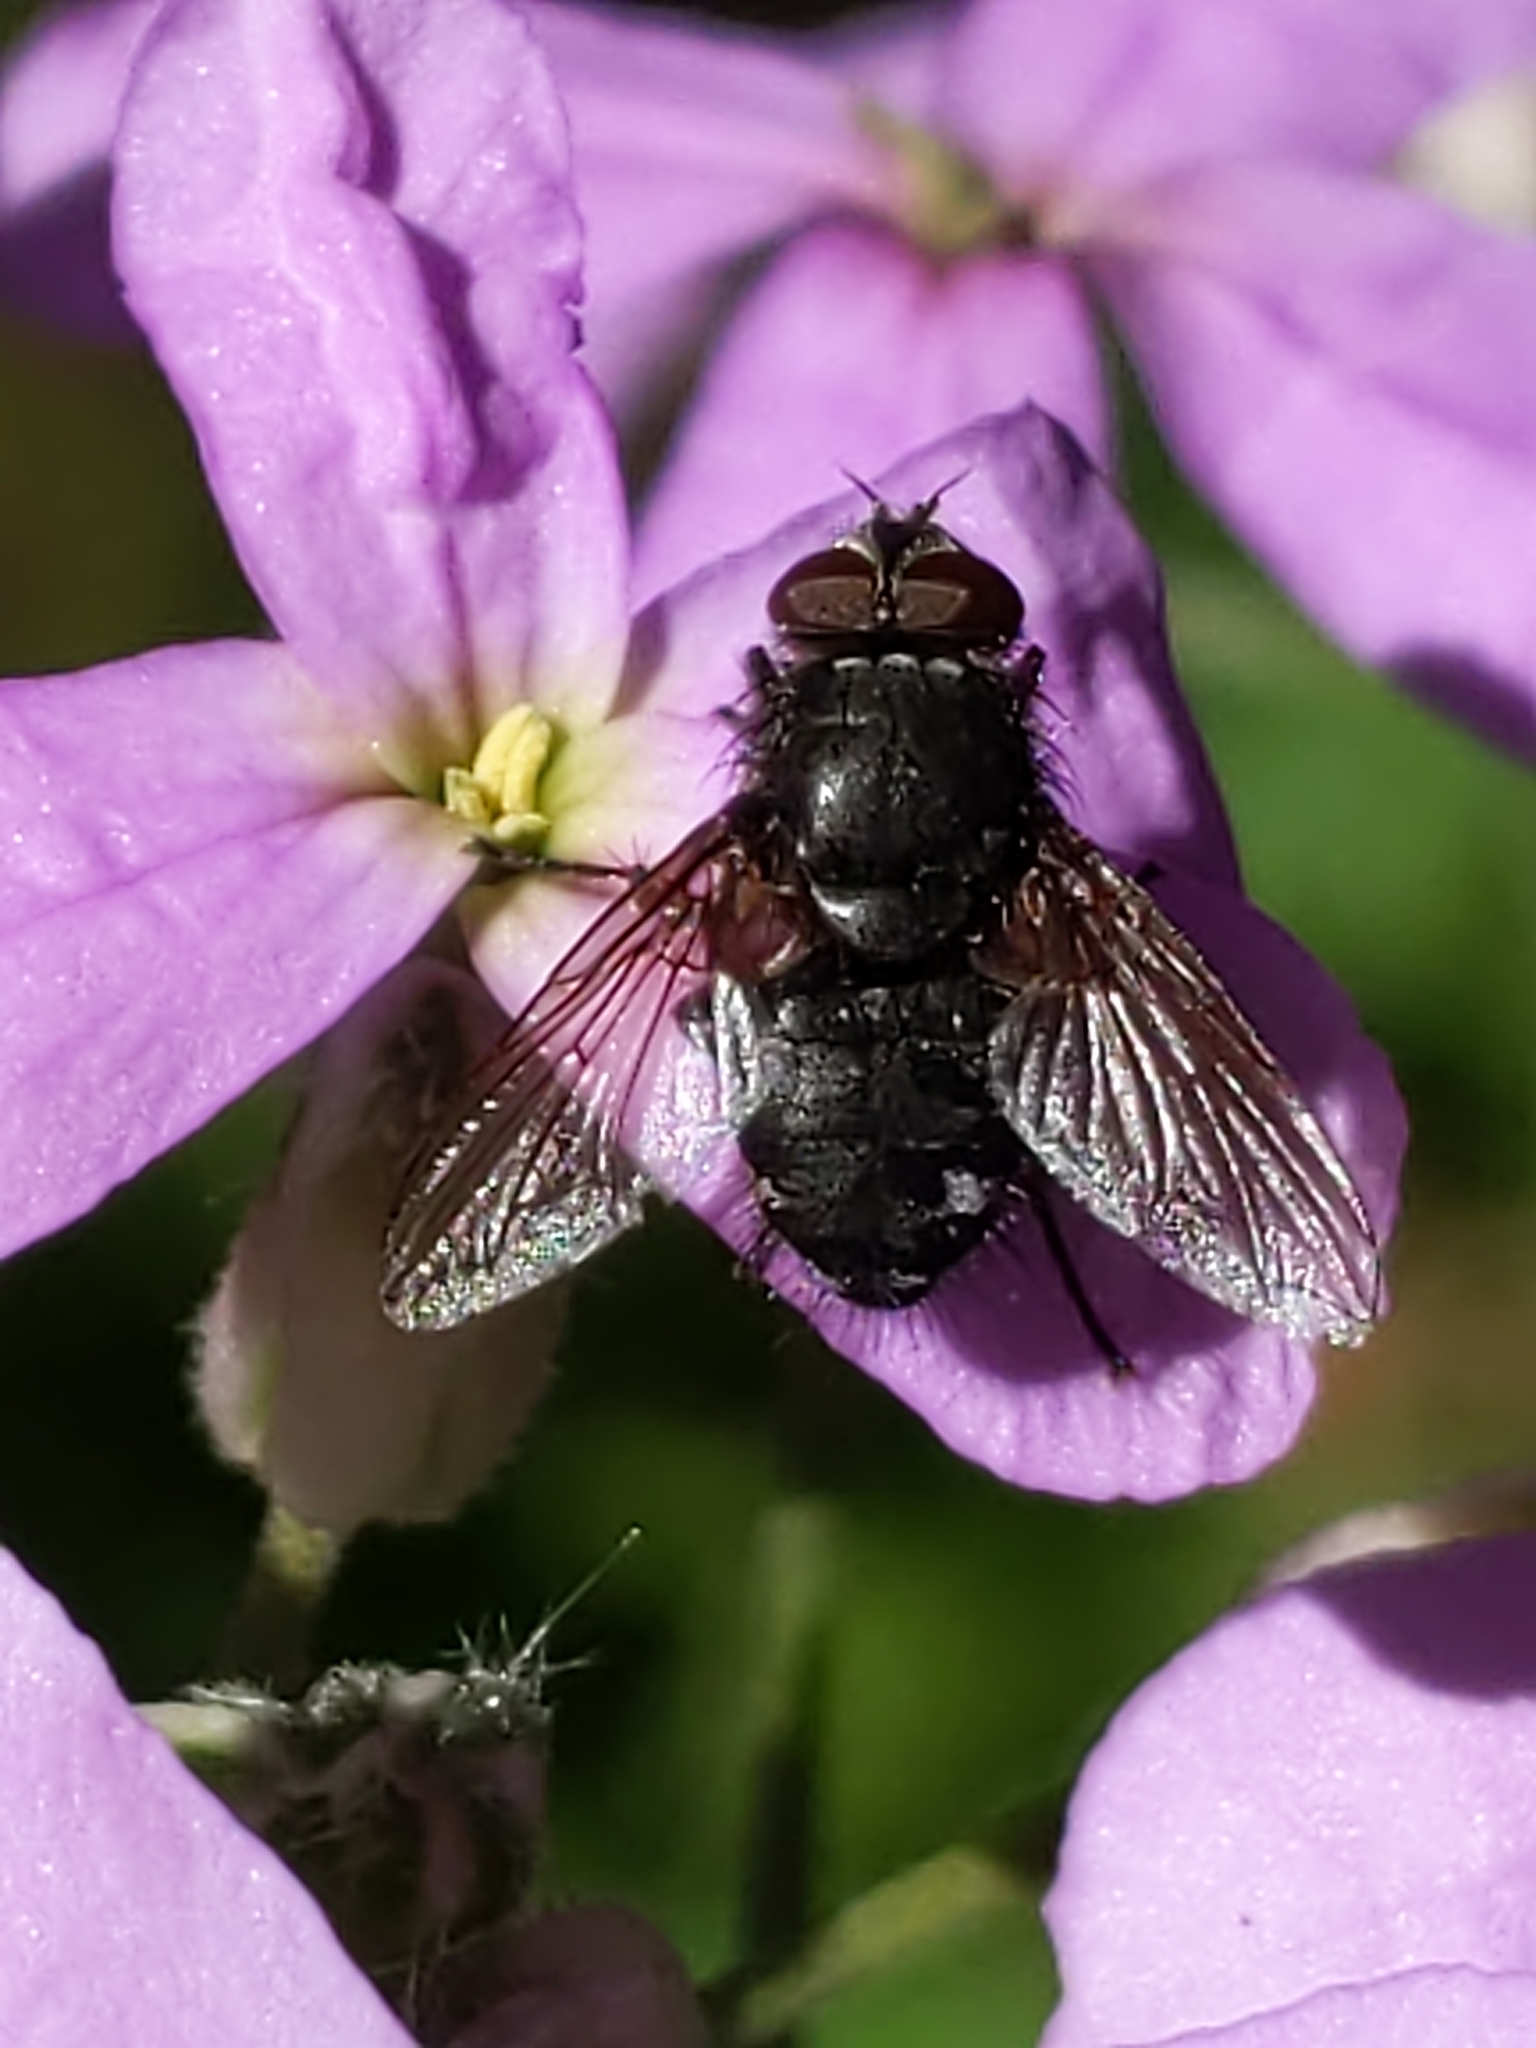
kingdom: Animalia
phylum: Arthropoda
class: Insecta
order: Diptera
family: Polleniidae
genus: Pollenia
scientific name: Pollenia
